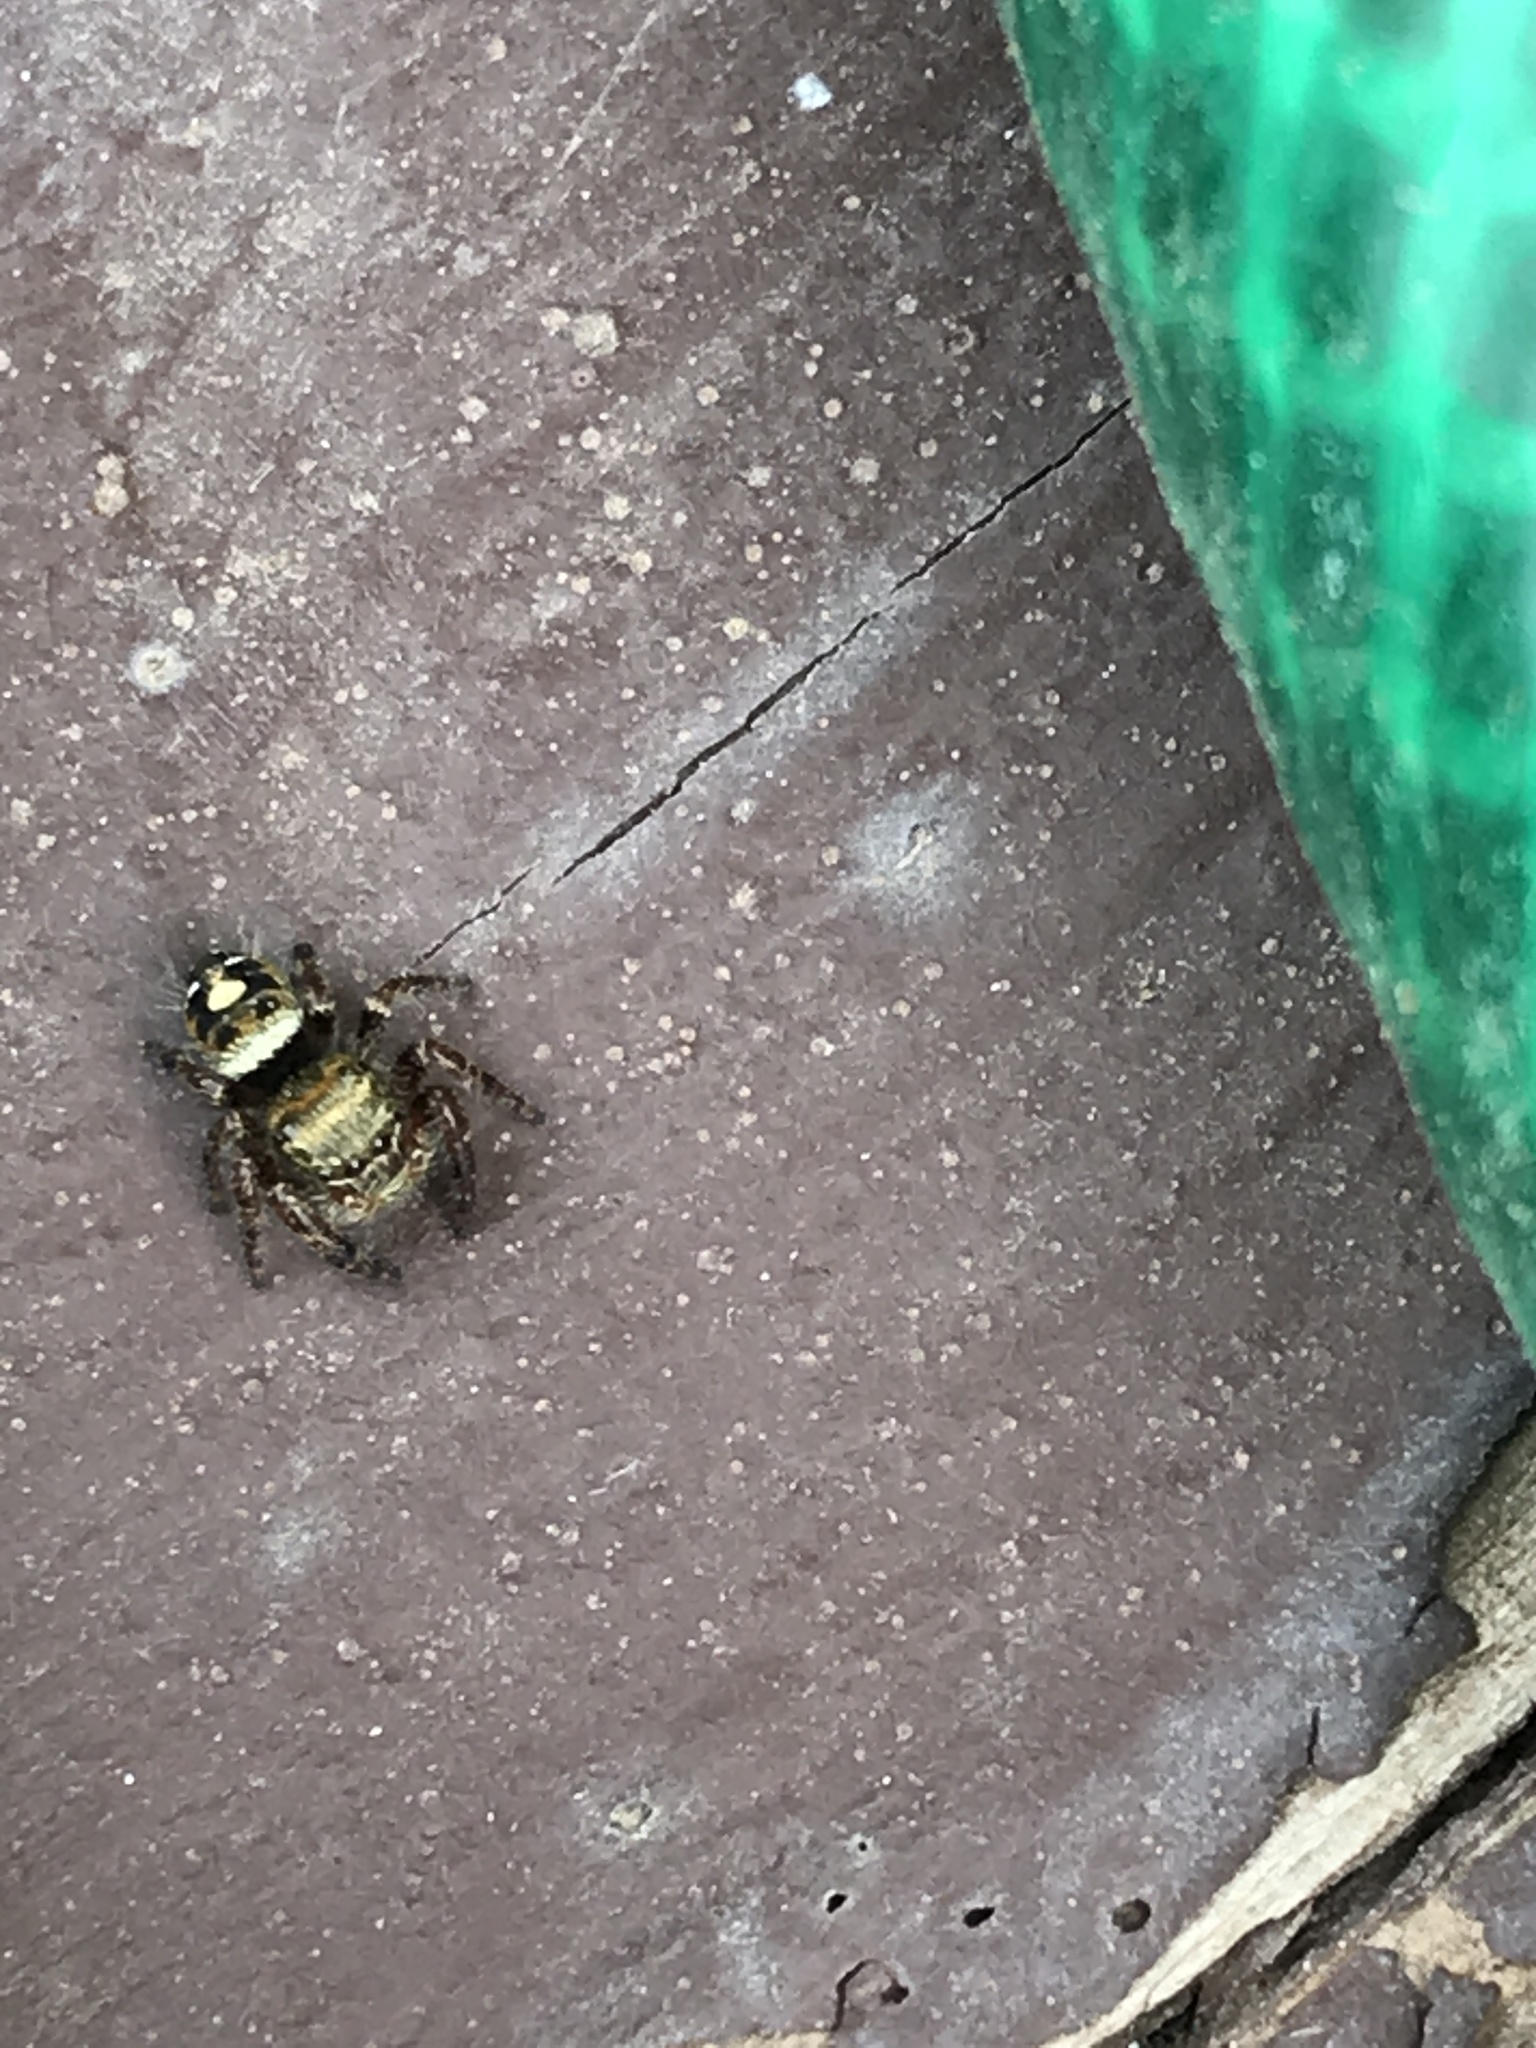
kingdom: Animalia
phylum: Arthropoda
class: Arachnida
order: Araneae
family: Salticidae
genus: Phidippus
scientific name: Phidippus audax
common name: Bold jumper
